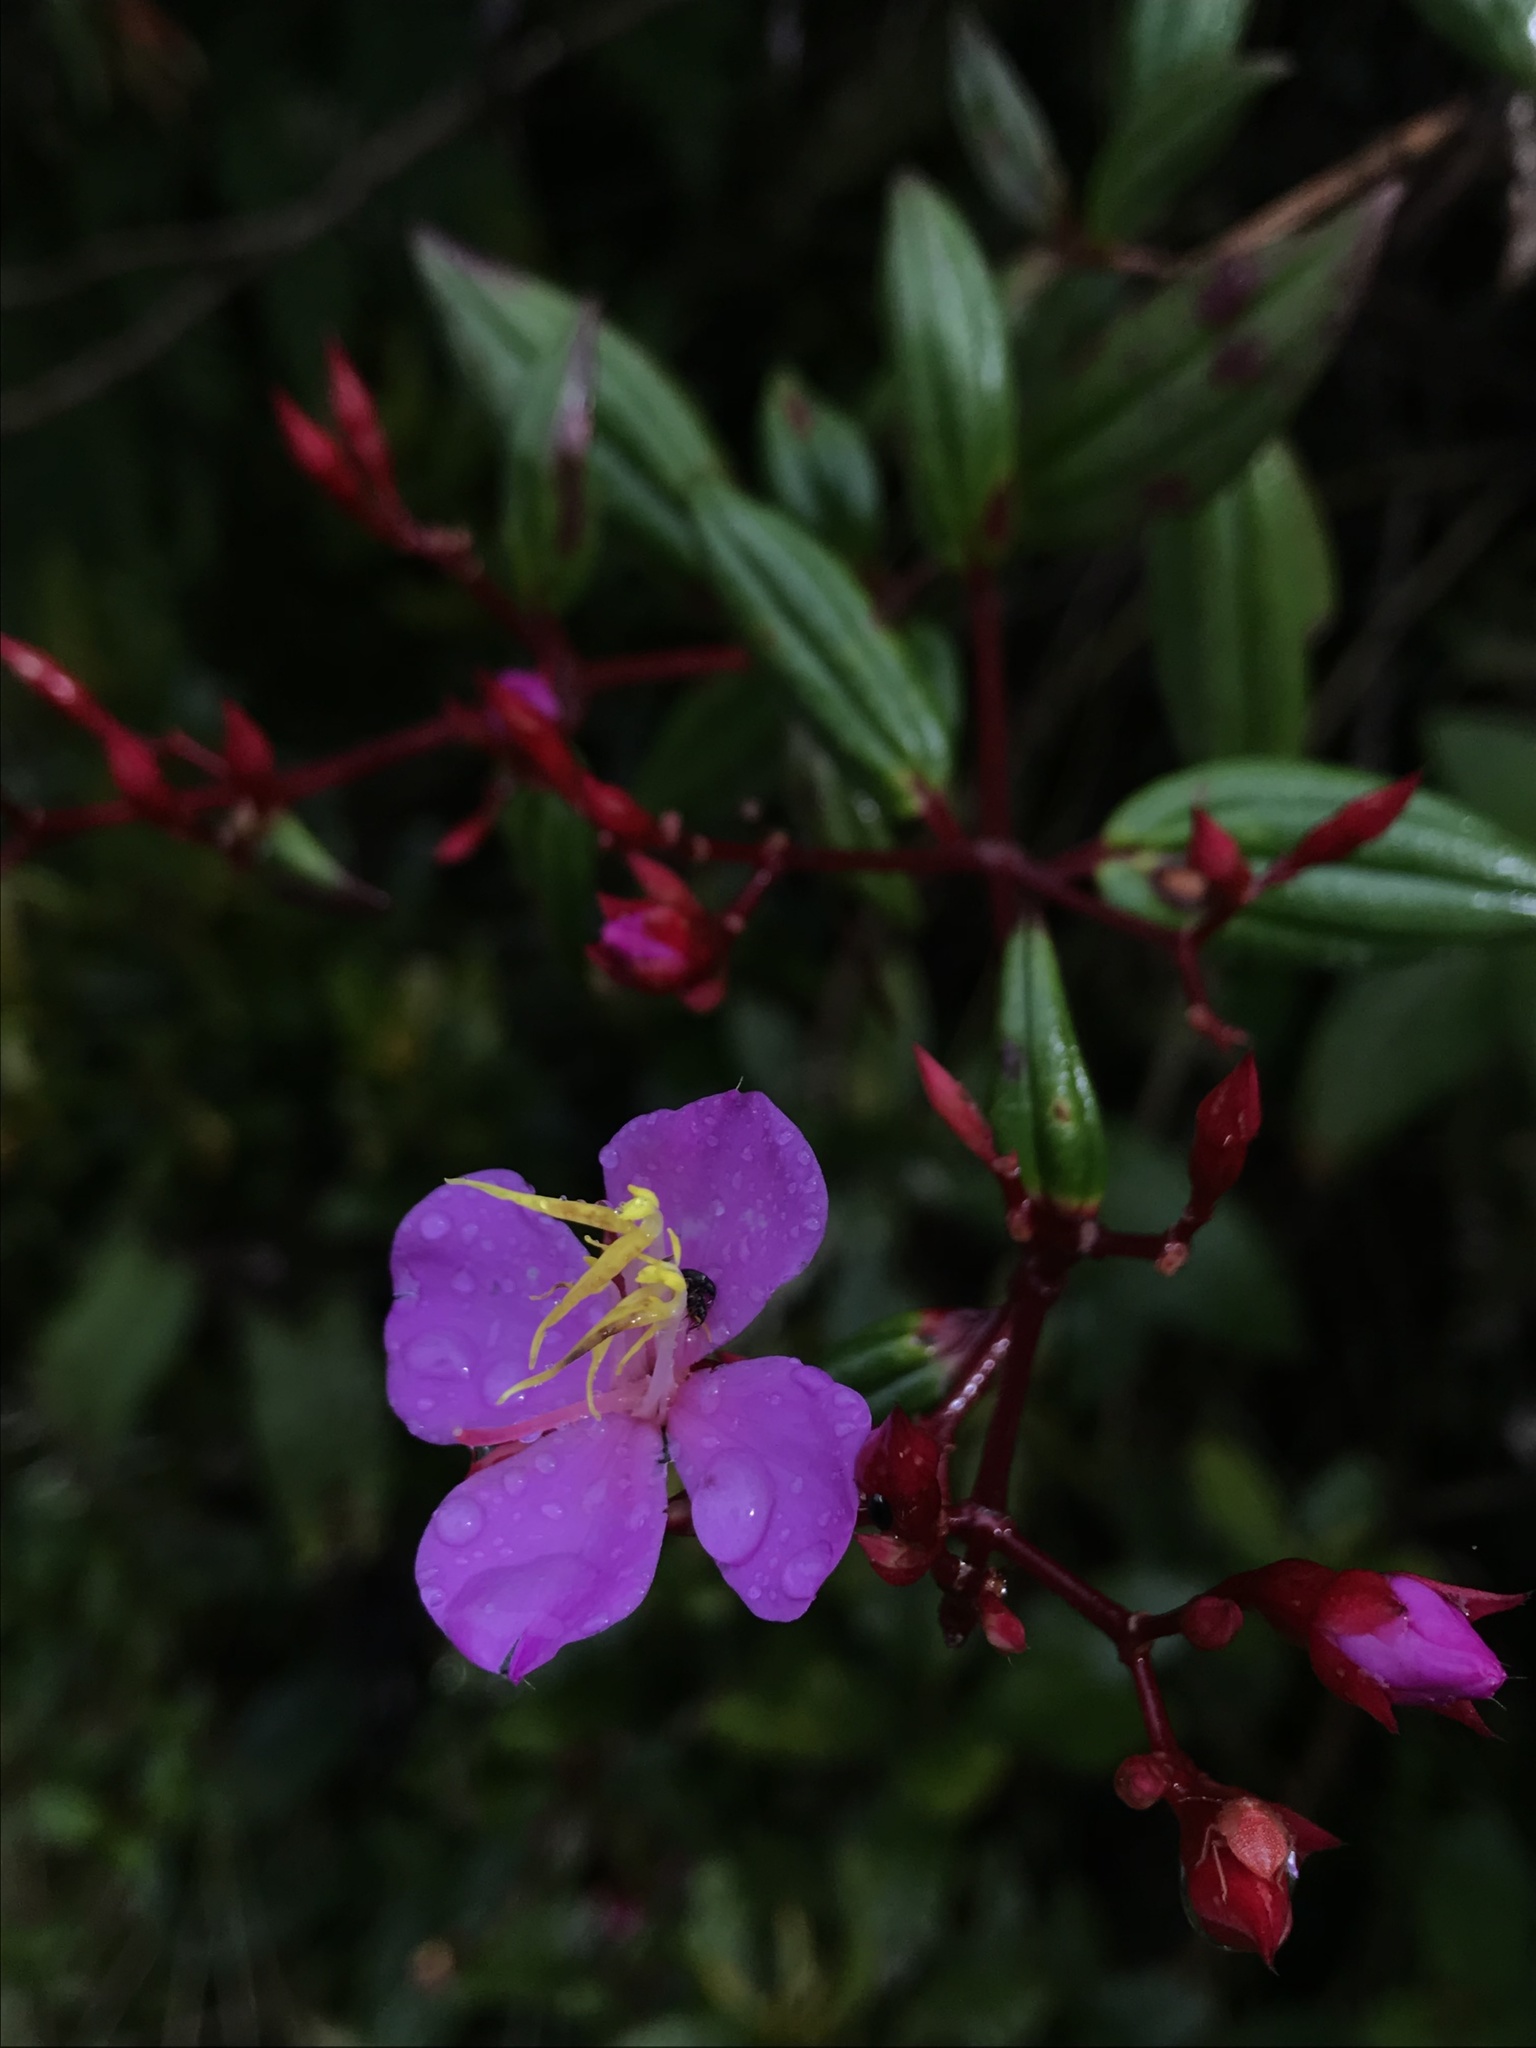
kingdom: Plantae
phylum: Tracheophyta
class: Magnoliopsida
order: Myrtales
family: Melastomataceae
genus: Monochaetum
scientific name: Monochaetum meridense
